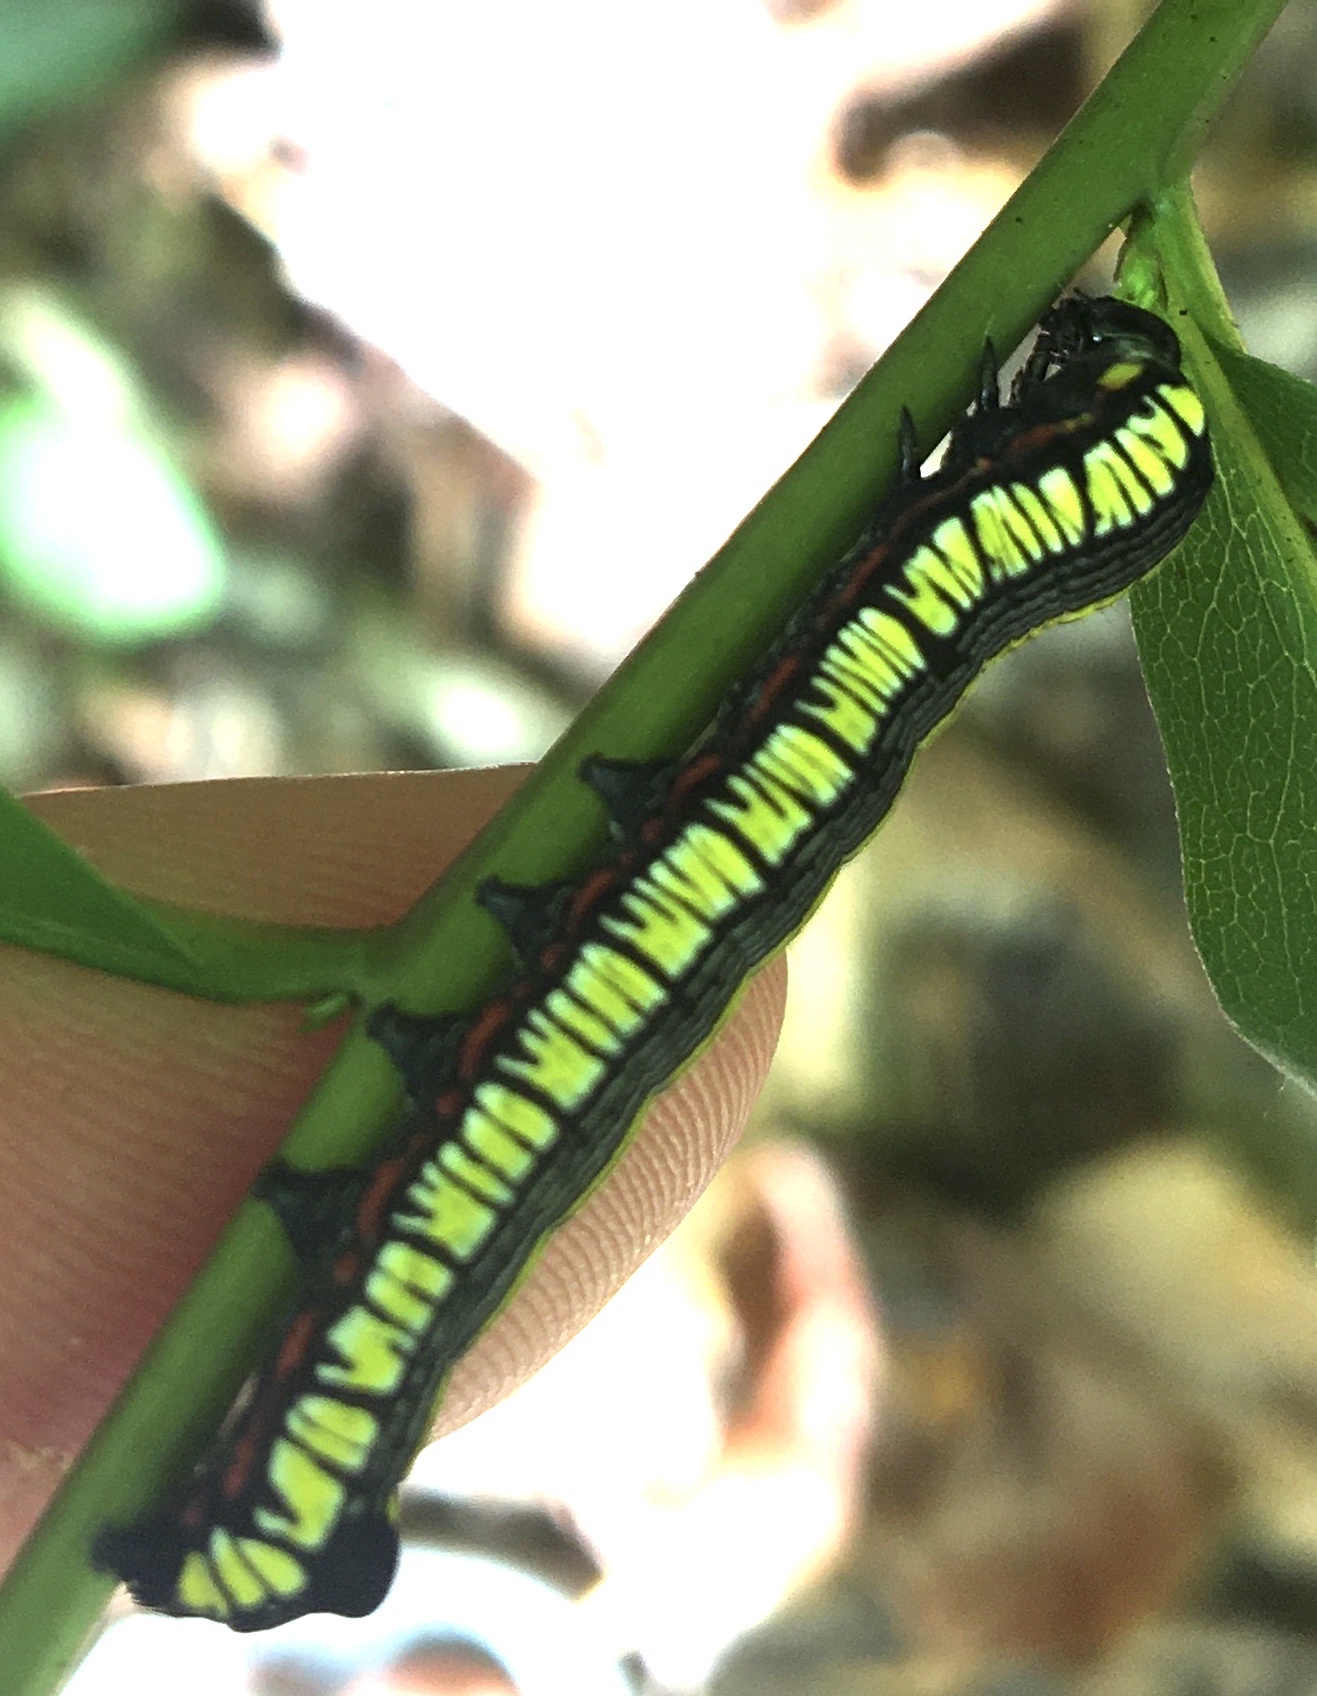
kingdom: Animalia
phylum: Arthropoda
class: Insecta
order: Lepidoptera
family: Noctuidae
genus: Cucullia
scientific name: Cucullia convexipennis
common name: Brown-hooded owlet
